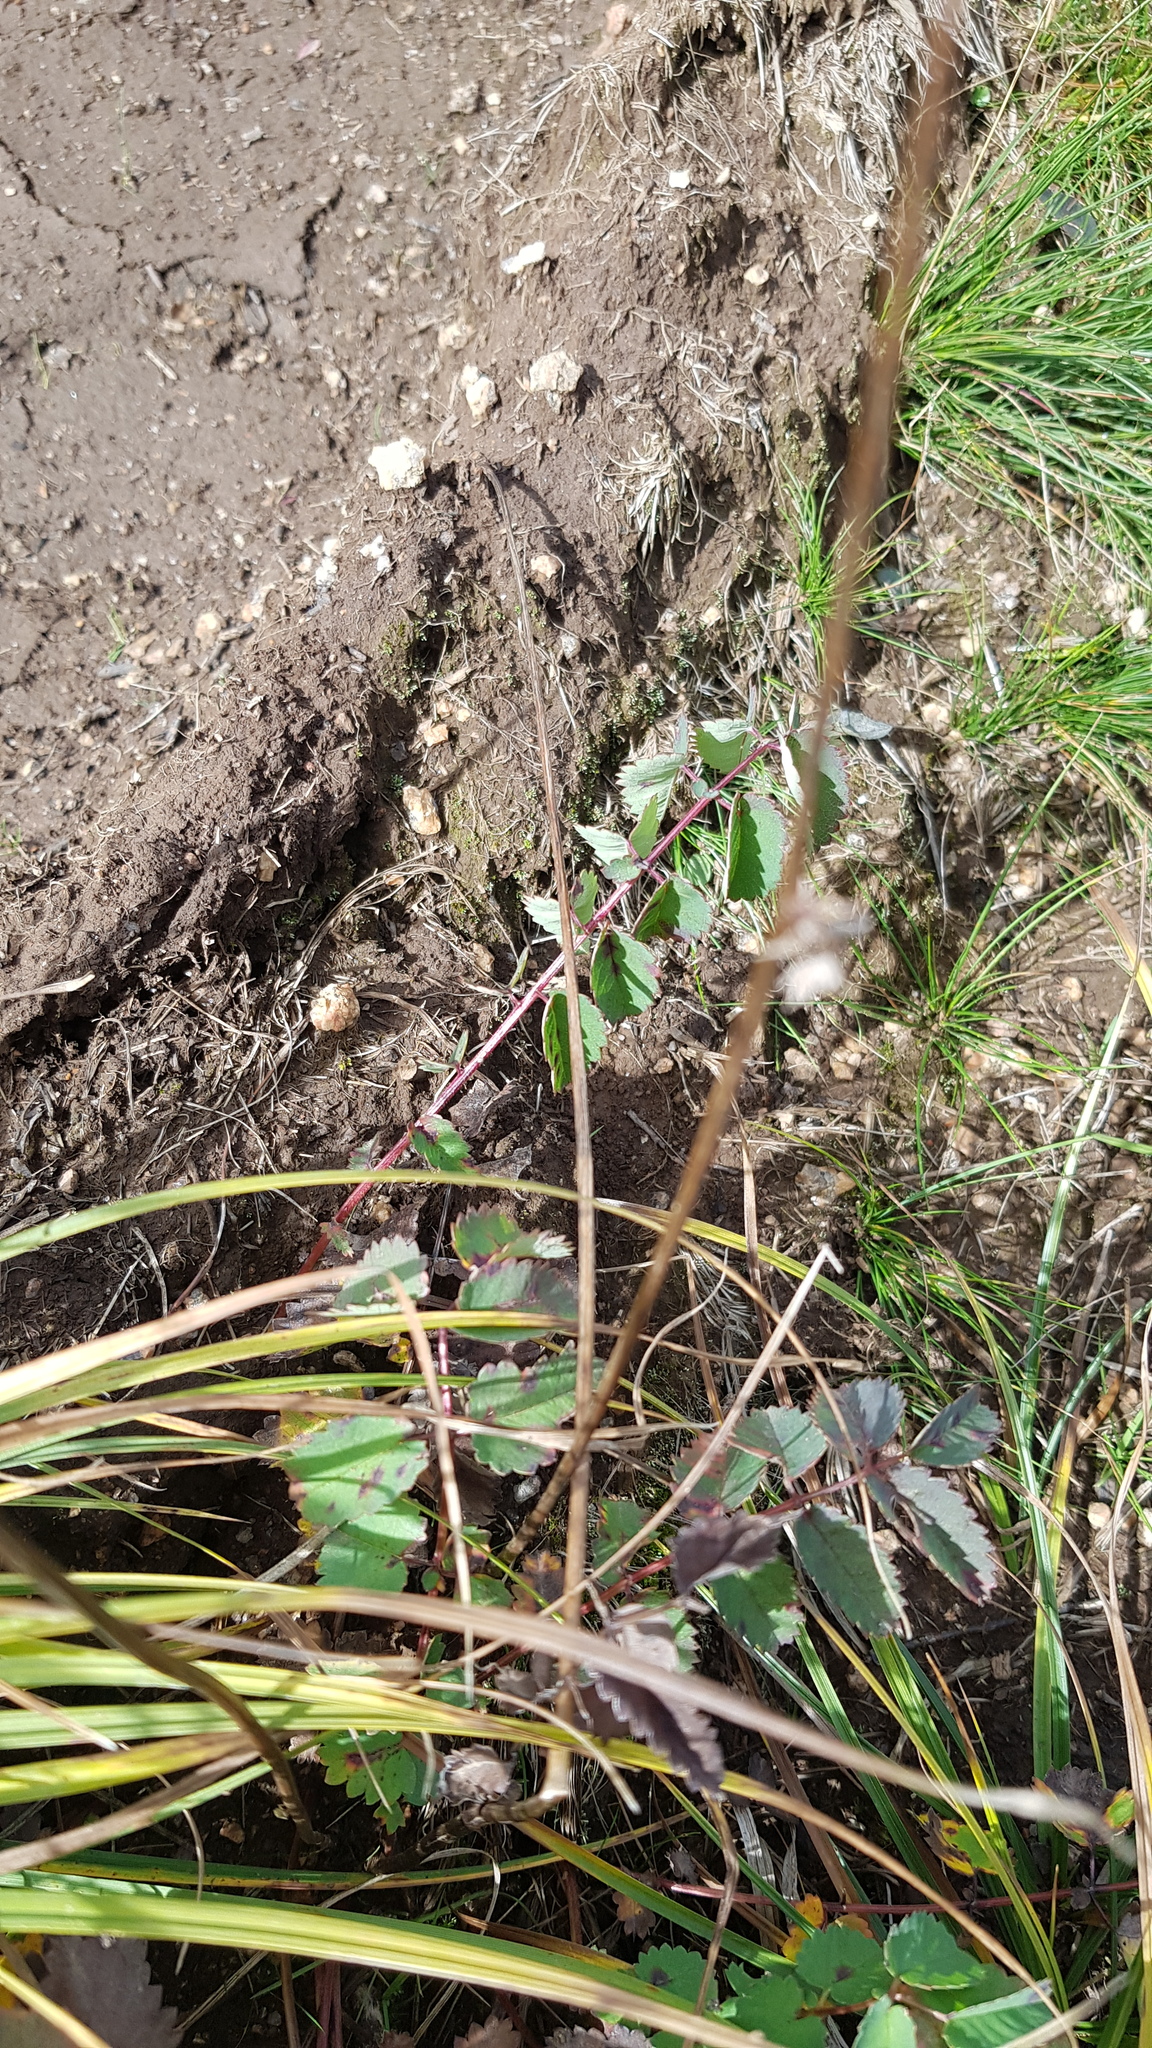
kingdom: Plantae
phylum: Tracheophyta
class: Liliopsida
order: Poales
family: Cyperaceae
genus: Carex
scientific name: Carex pediformis
